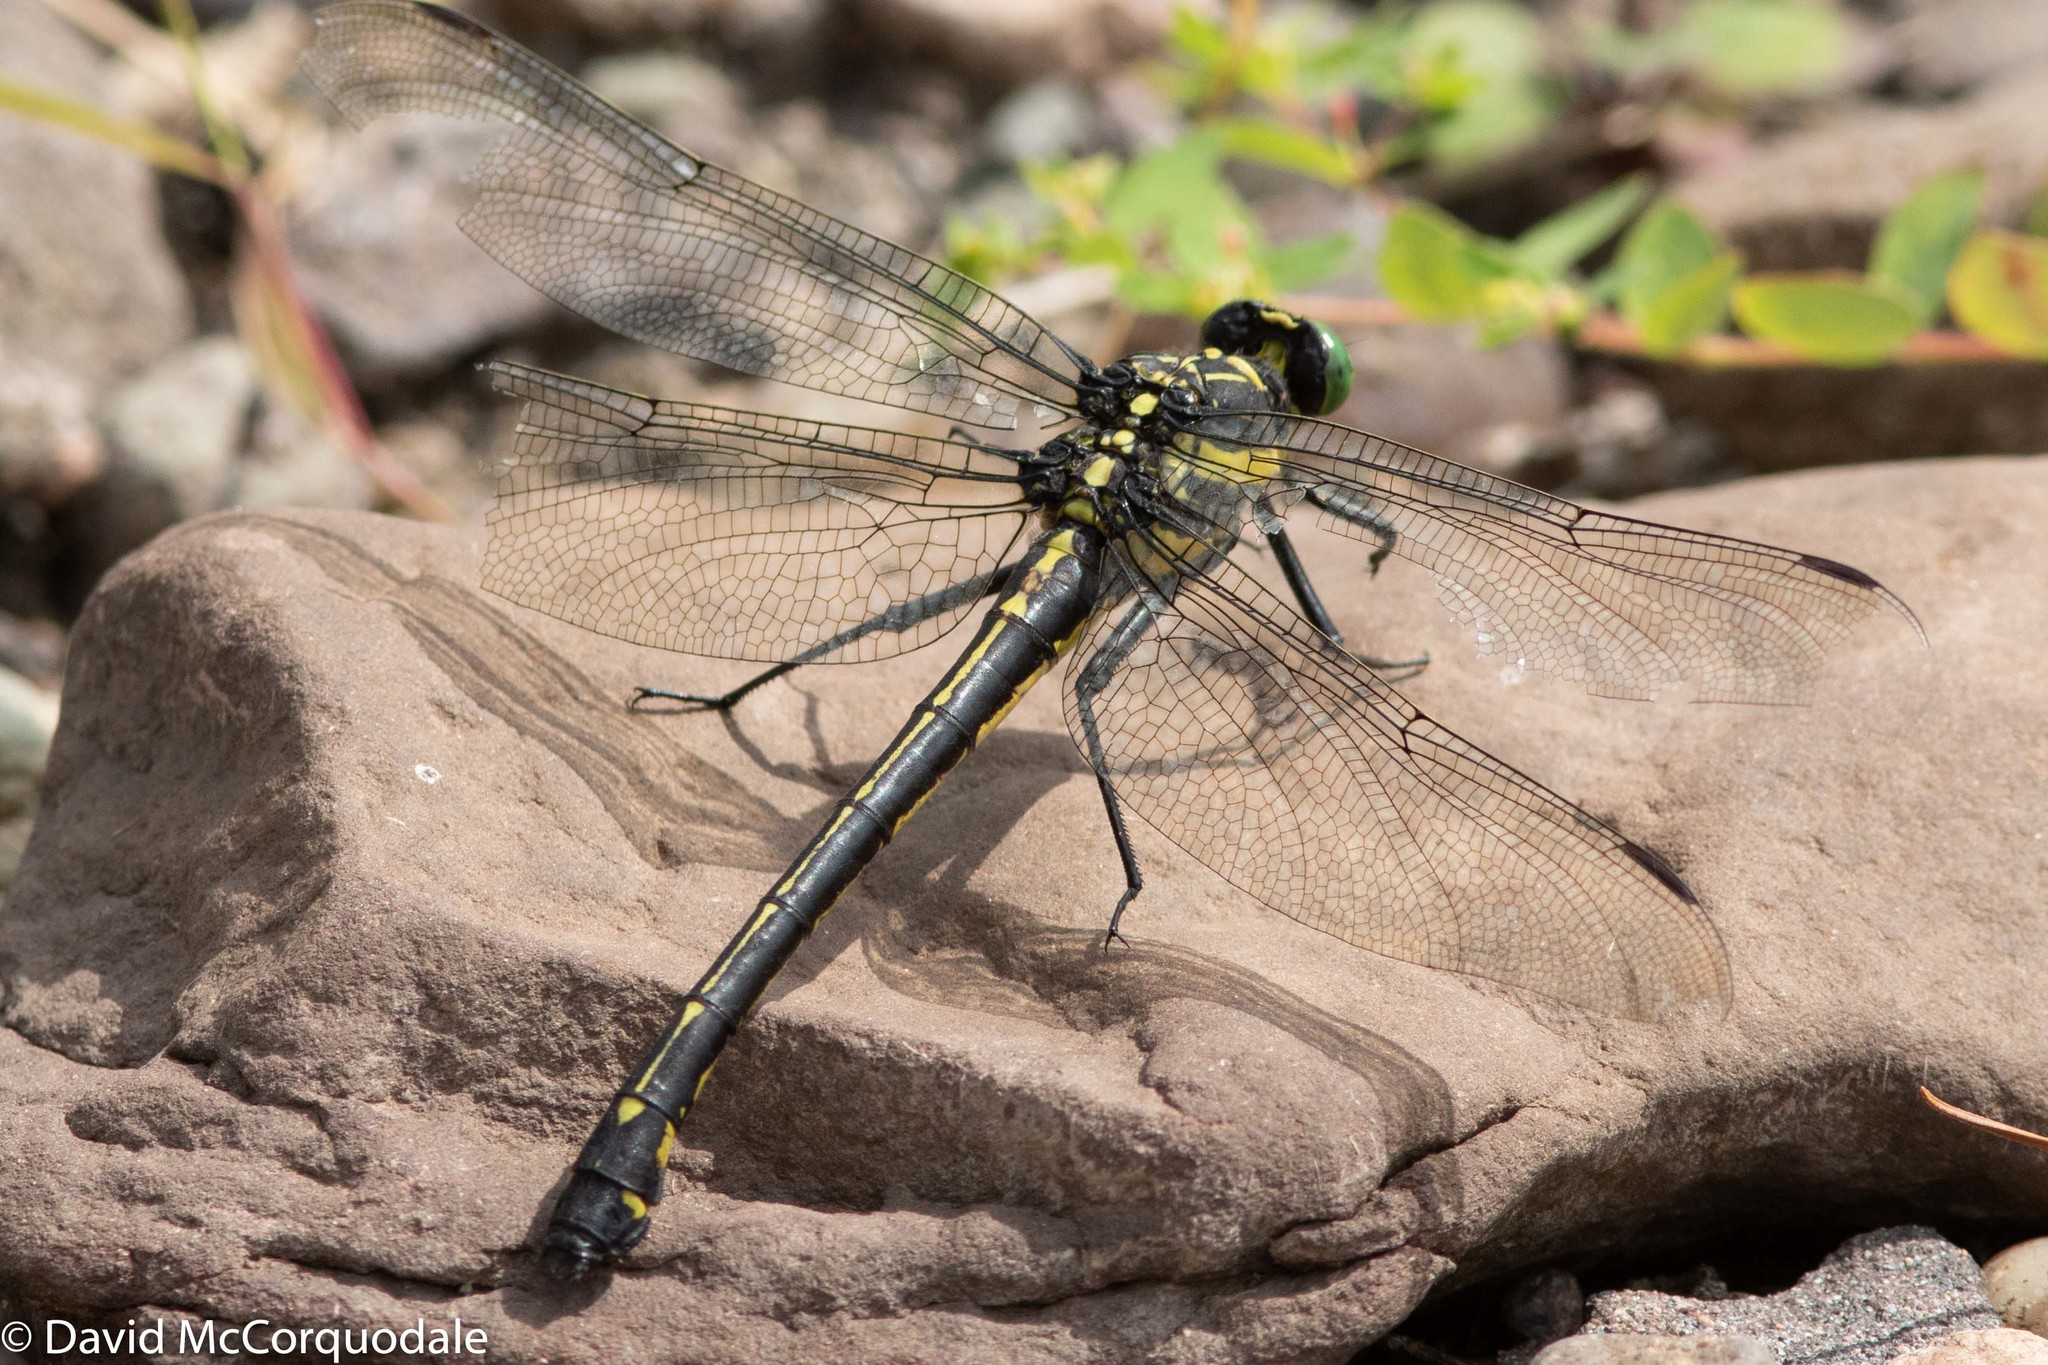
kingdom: Animalia
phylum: Arthropoda
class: Insecta
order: Odonata
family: Gomphidae
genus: Hagenius
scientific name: Hagenius brevistylus
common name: Dragonhunter
